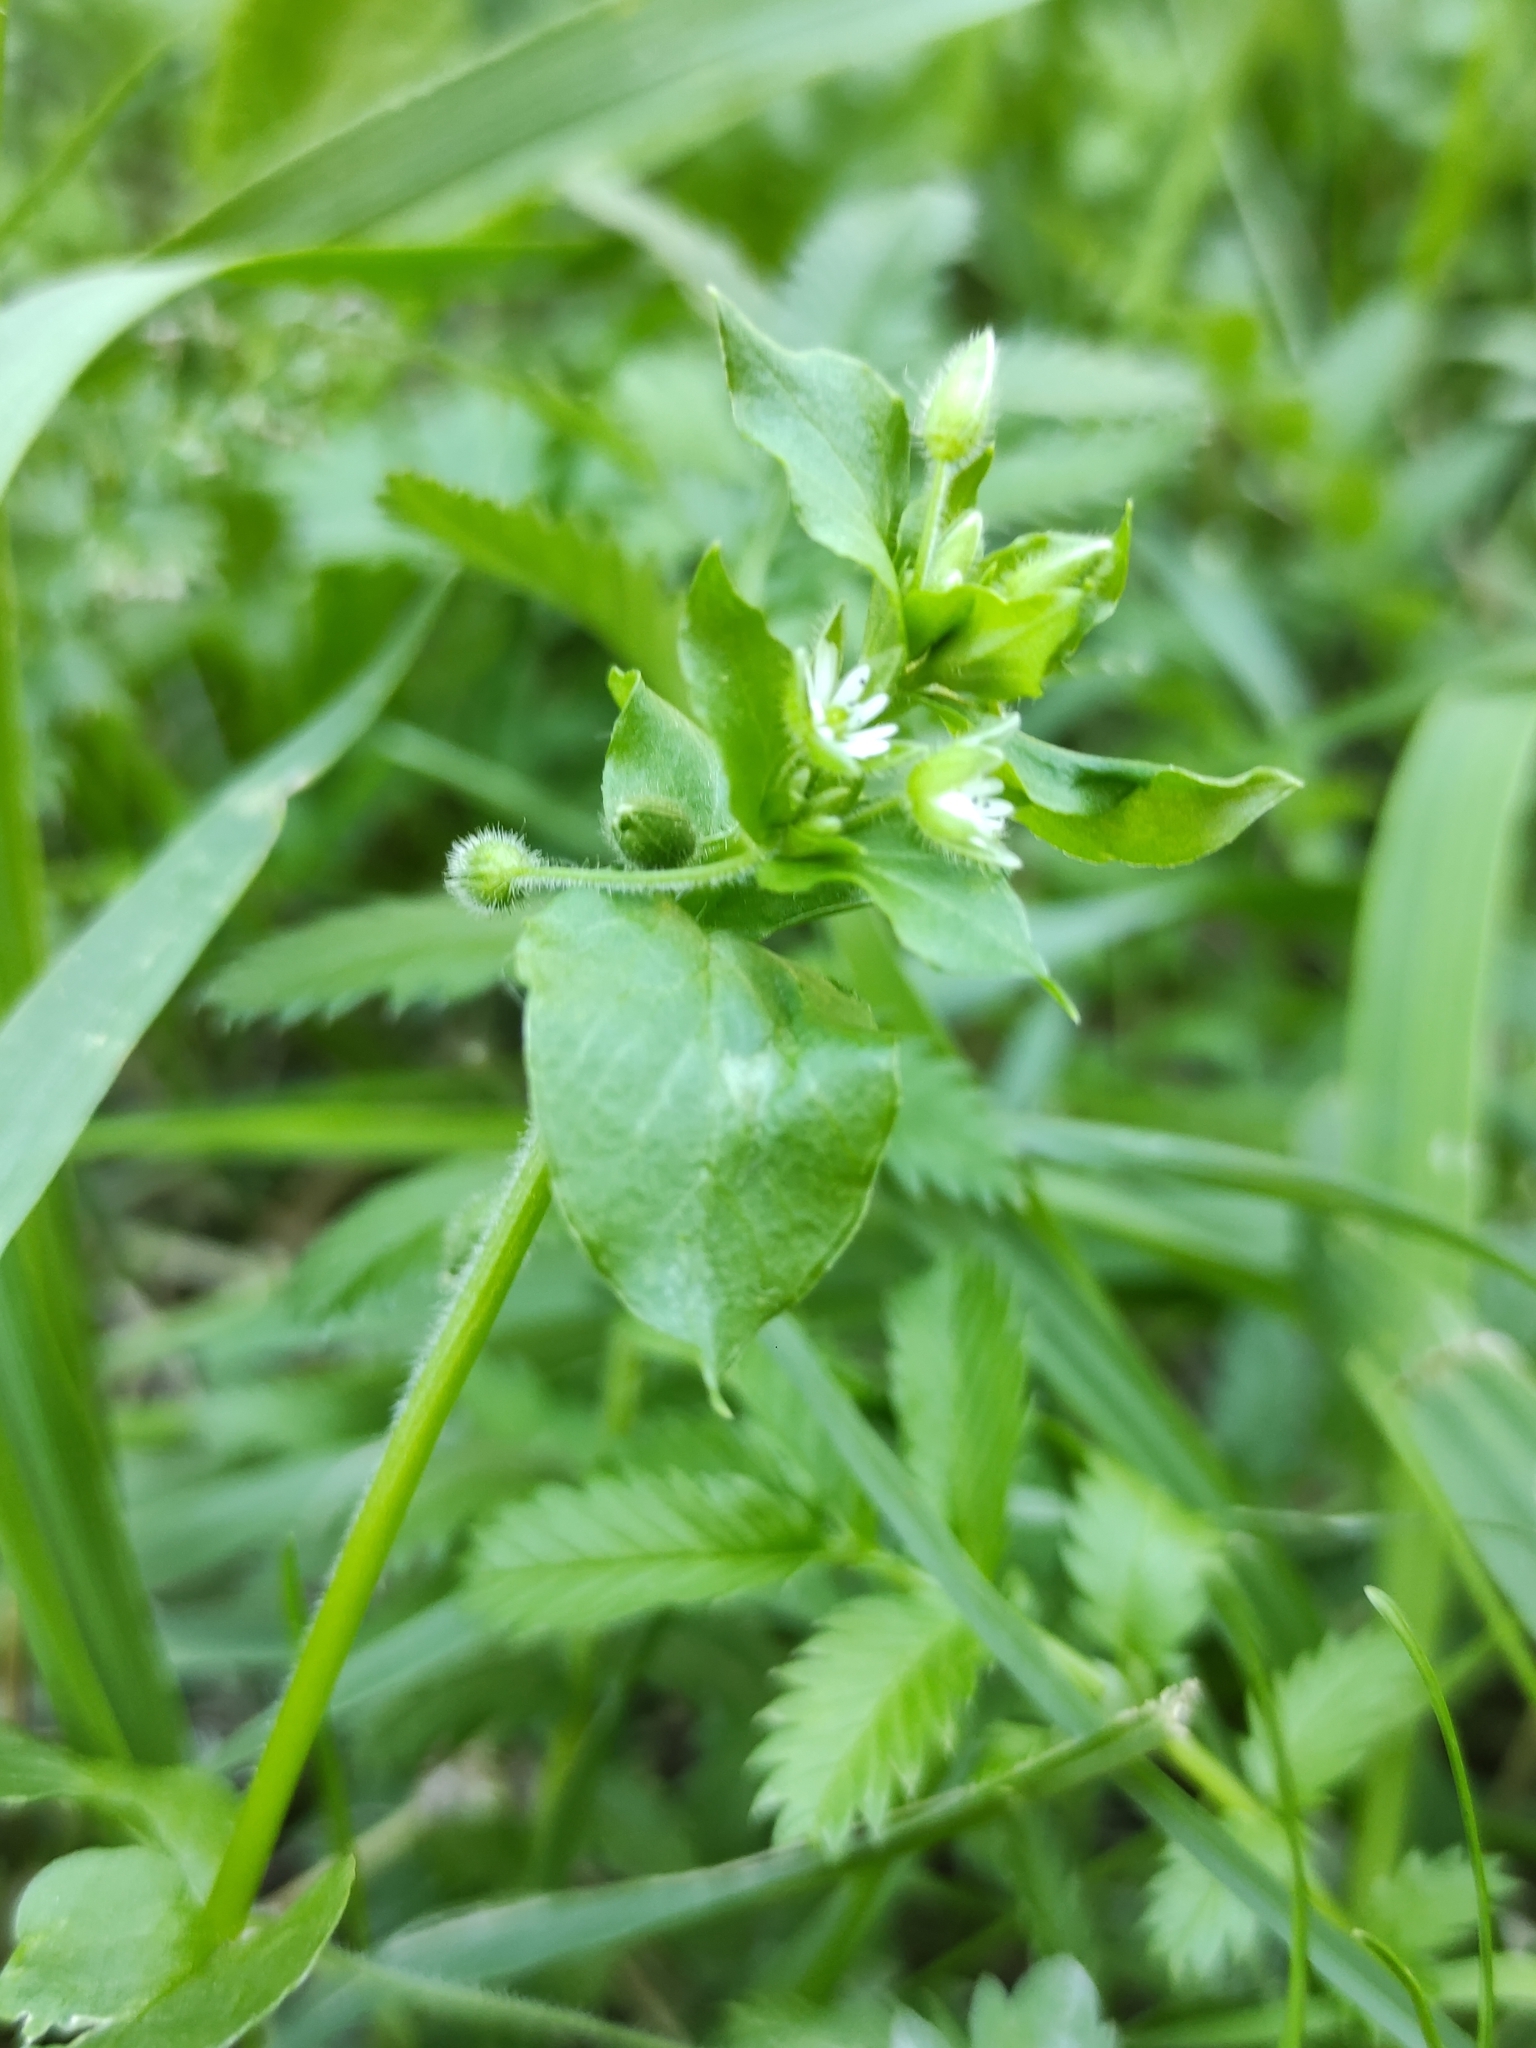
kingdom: Plantae
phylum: Tracheophyta
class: Magnoliopsida
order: Caryophyllales
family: Caryophyllaceae
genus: Stellaria
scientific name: Stellaria media
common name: Common chickweed
